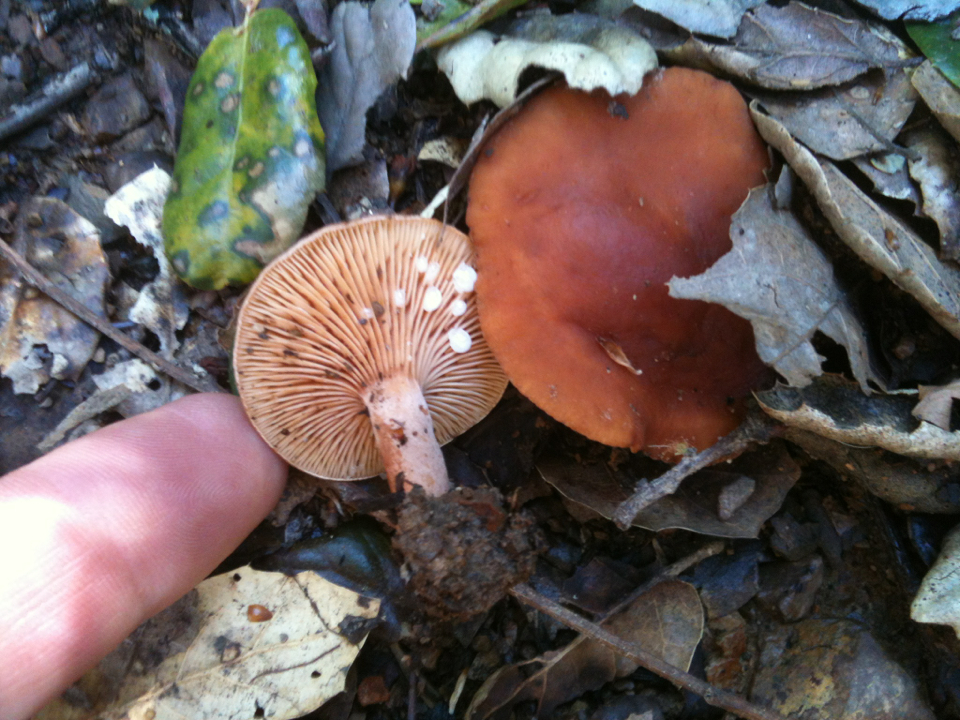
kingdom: Fungi
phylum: Basidiomycota
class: Agaricomycetes
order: Russulales
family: Russulaceae
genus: Lactarius
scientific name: Lactarius rubidus
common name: Candy cap
